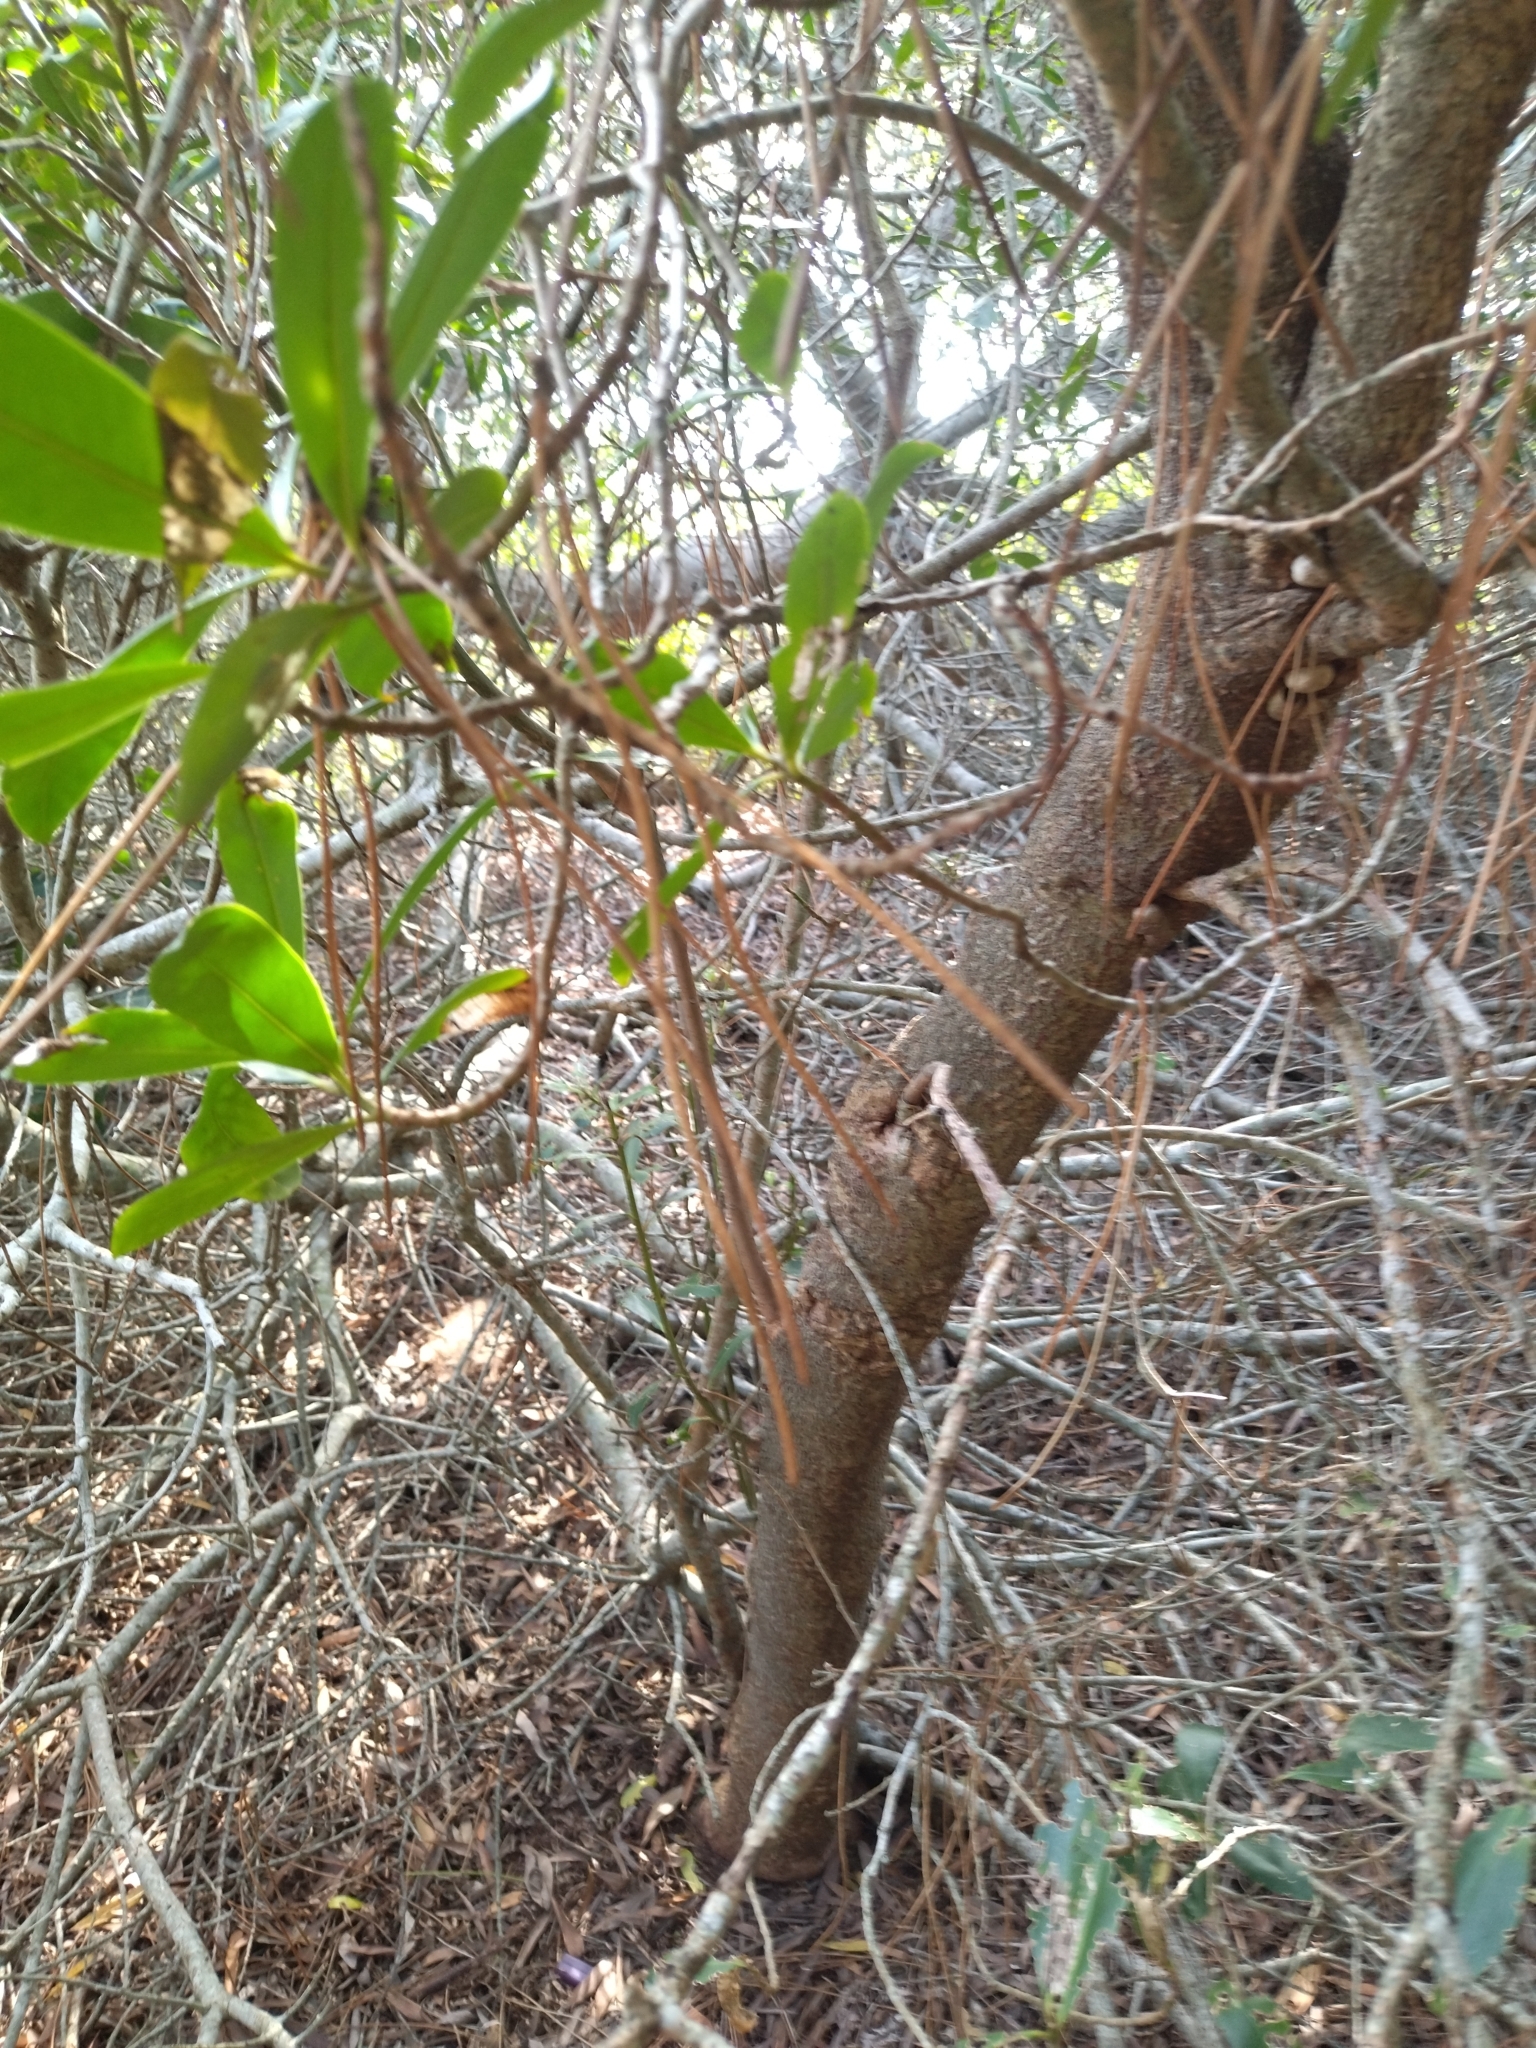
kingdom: Plantae
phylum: Tracheophyta
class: Magnoliopsida
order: Ericales
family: Primulaceae
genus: Myrsine
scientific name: Myrsine laetevirens
